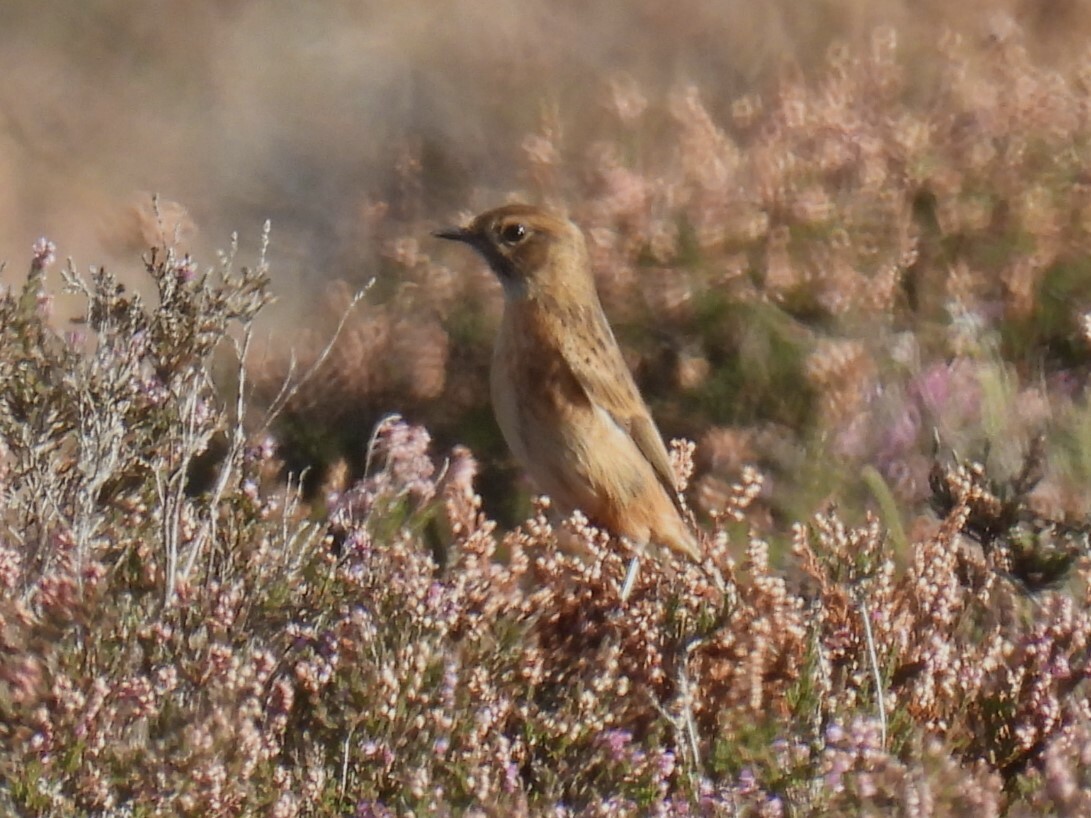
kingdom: Animalia
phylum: Chordata
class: Aves
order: Passeriformes
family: Muscicapidae
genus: Saxicola
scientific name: Saxicola rubicola
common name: European stonechat
